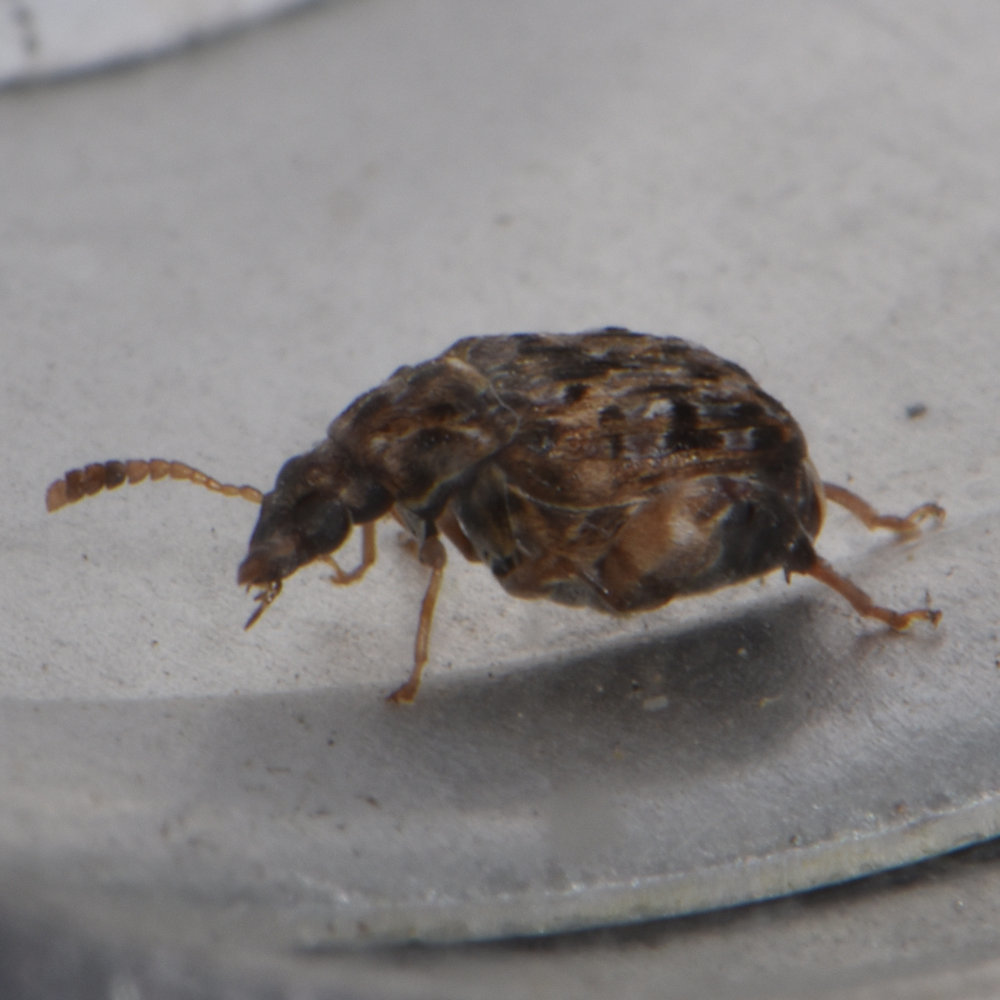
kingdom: Animalia
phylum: Arthropoda
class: Insecta
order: Coleoptera
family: Chrysomelidae
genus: Gibbobruchus
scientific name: Gibbobruchus mimus
